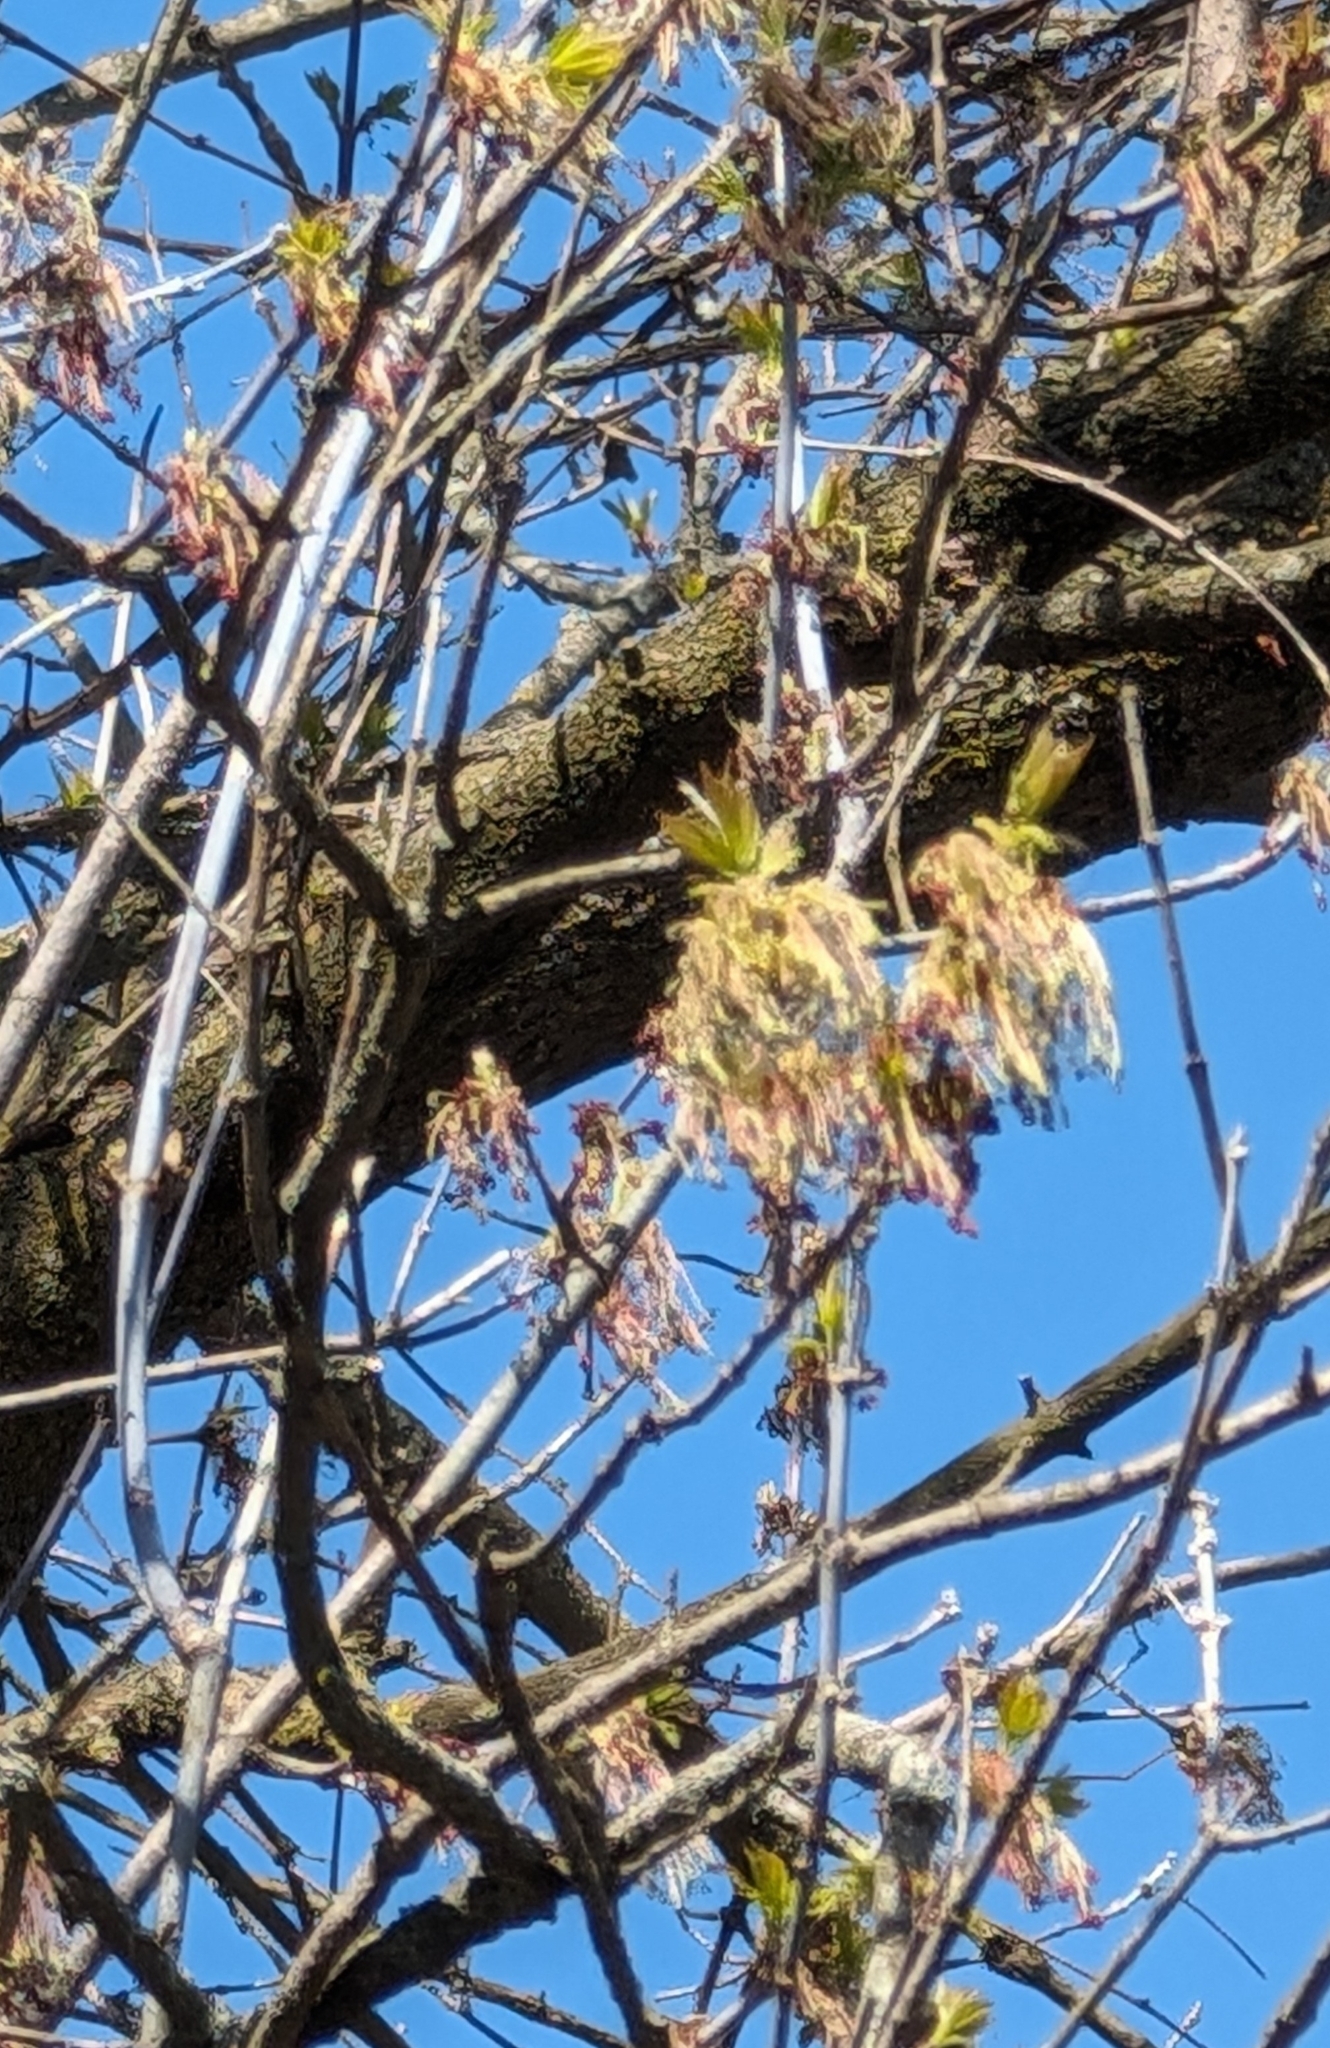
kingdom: Plantae
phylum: Tracheophyta
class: Magnoliopsida
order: Sapindales
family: Sapindaceae
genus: Acer
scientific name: Acer negundo
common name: Ashleaf maple
